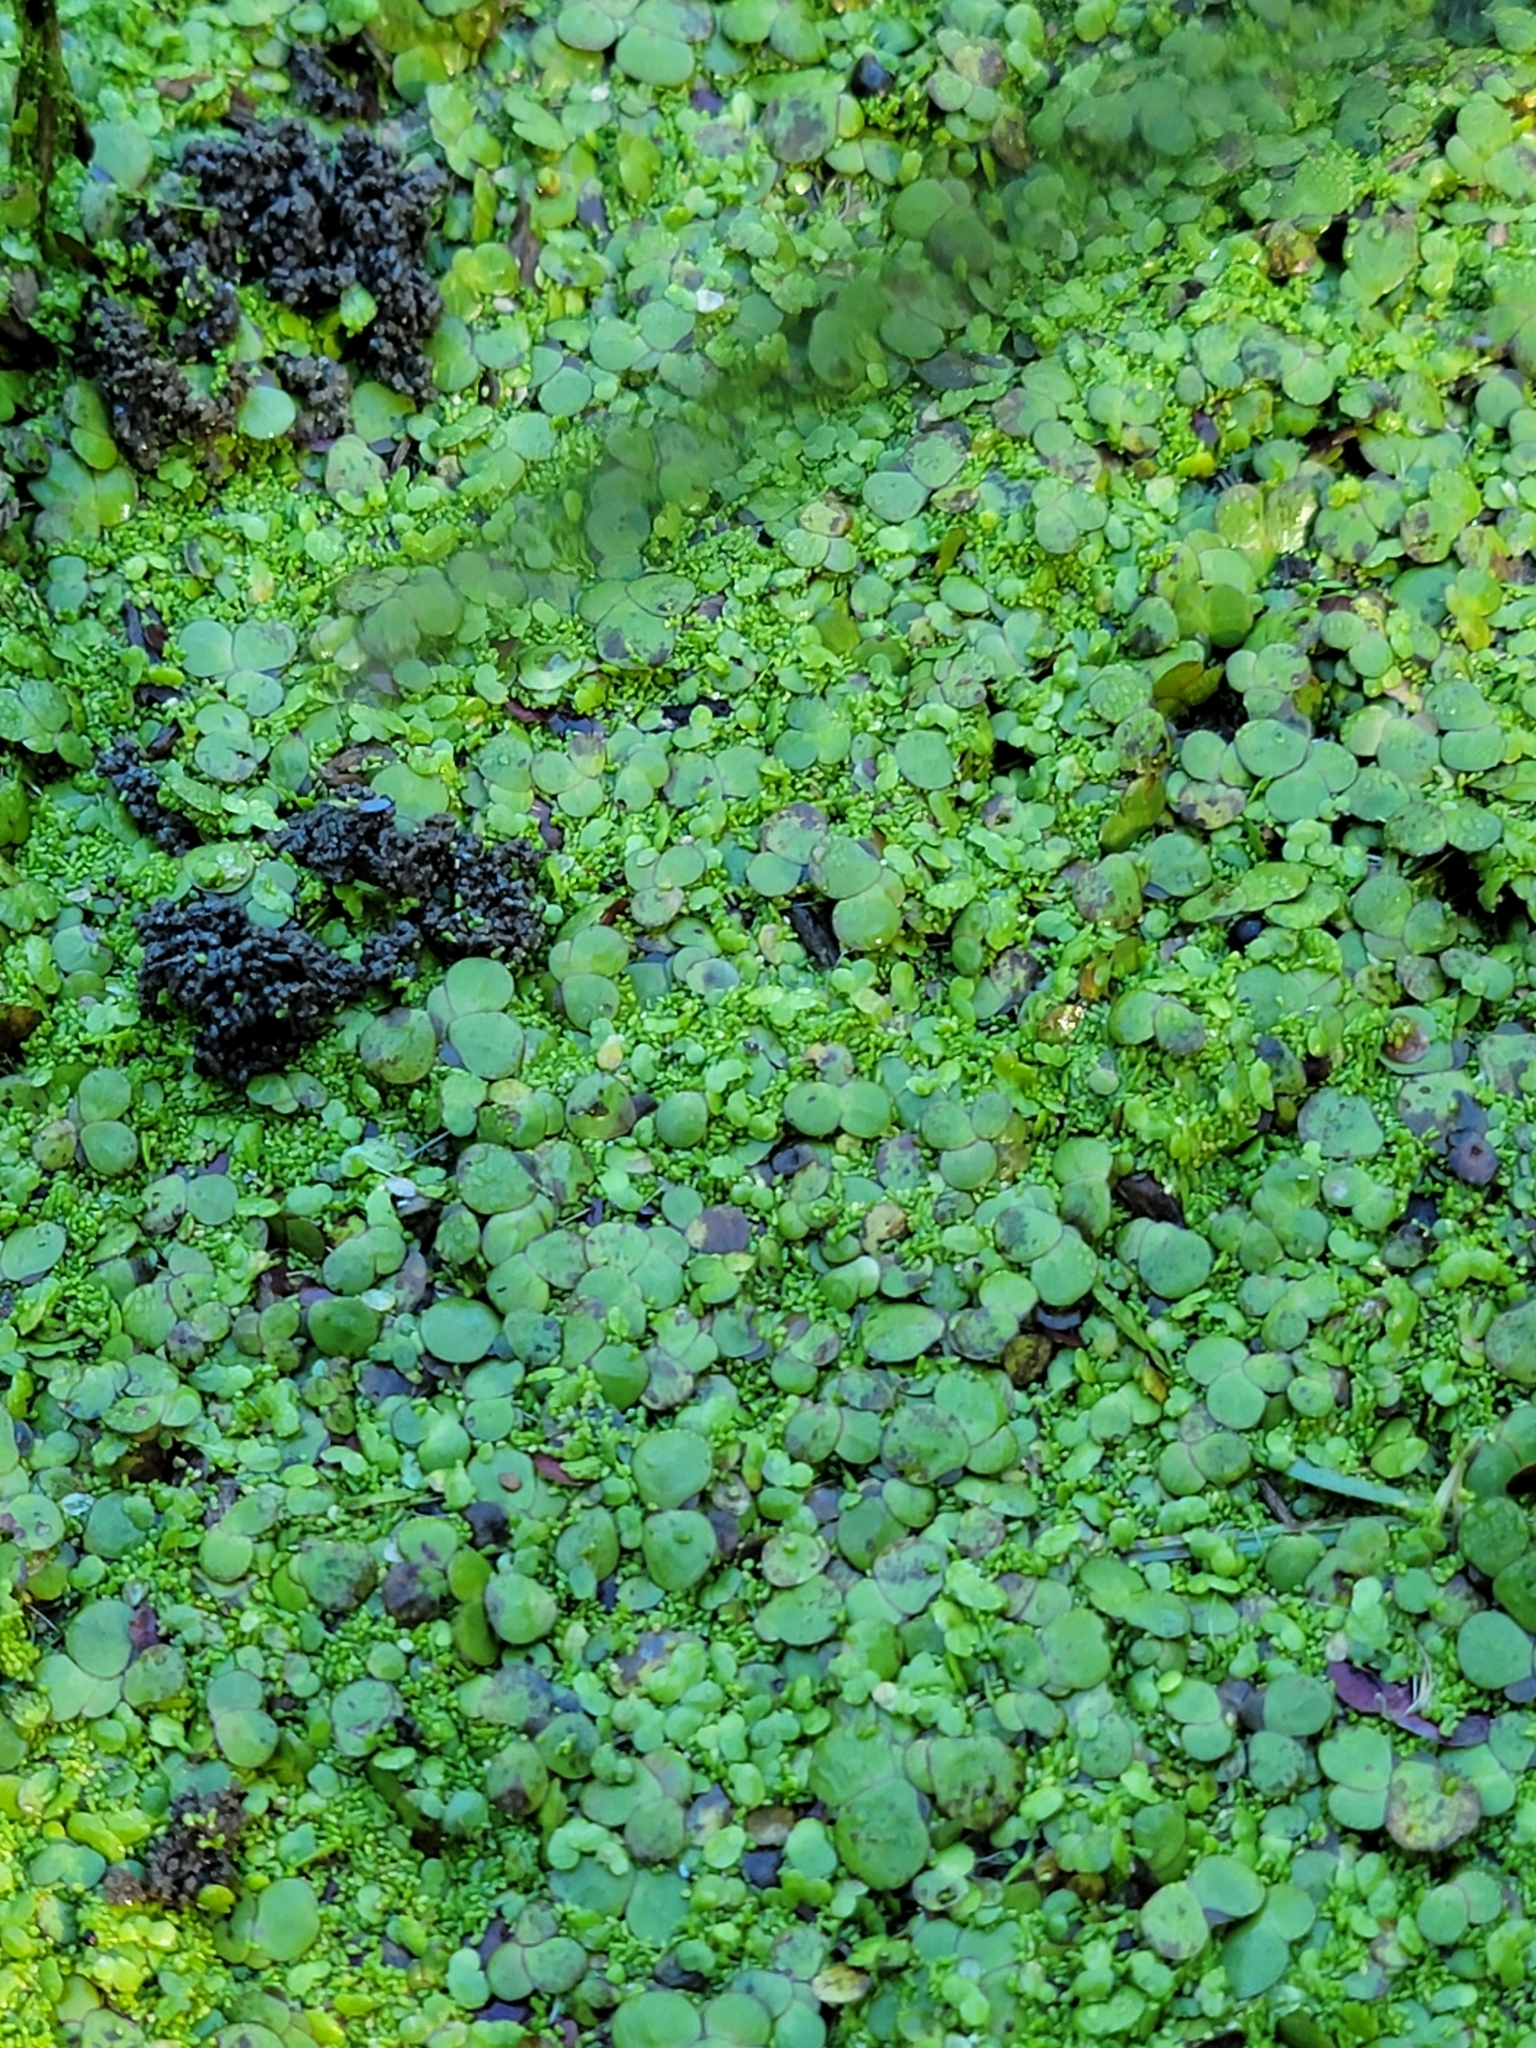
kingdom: Plantae
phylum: Tracheophyta
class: Liliopsida
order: Alismatales
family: Araceae
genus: Spirodela
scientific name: Spirodela polyrhiza
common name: Great duckweed
